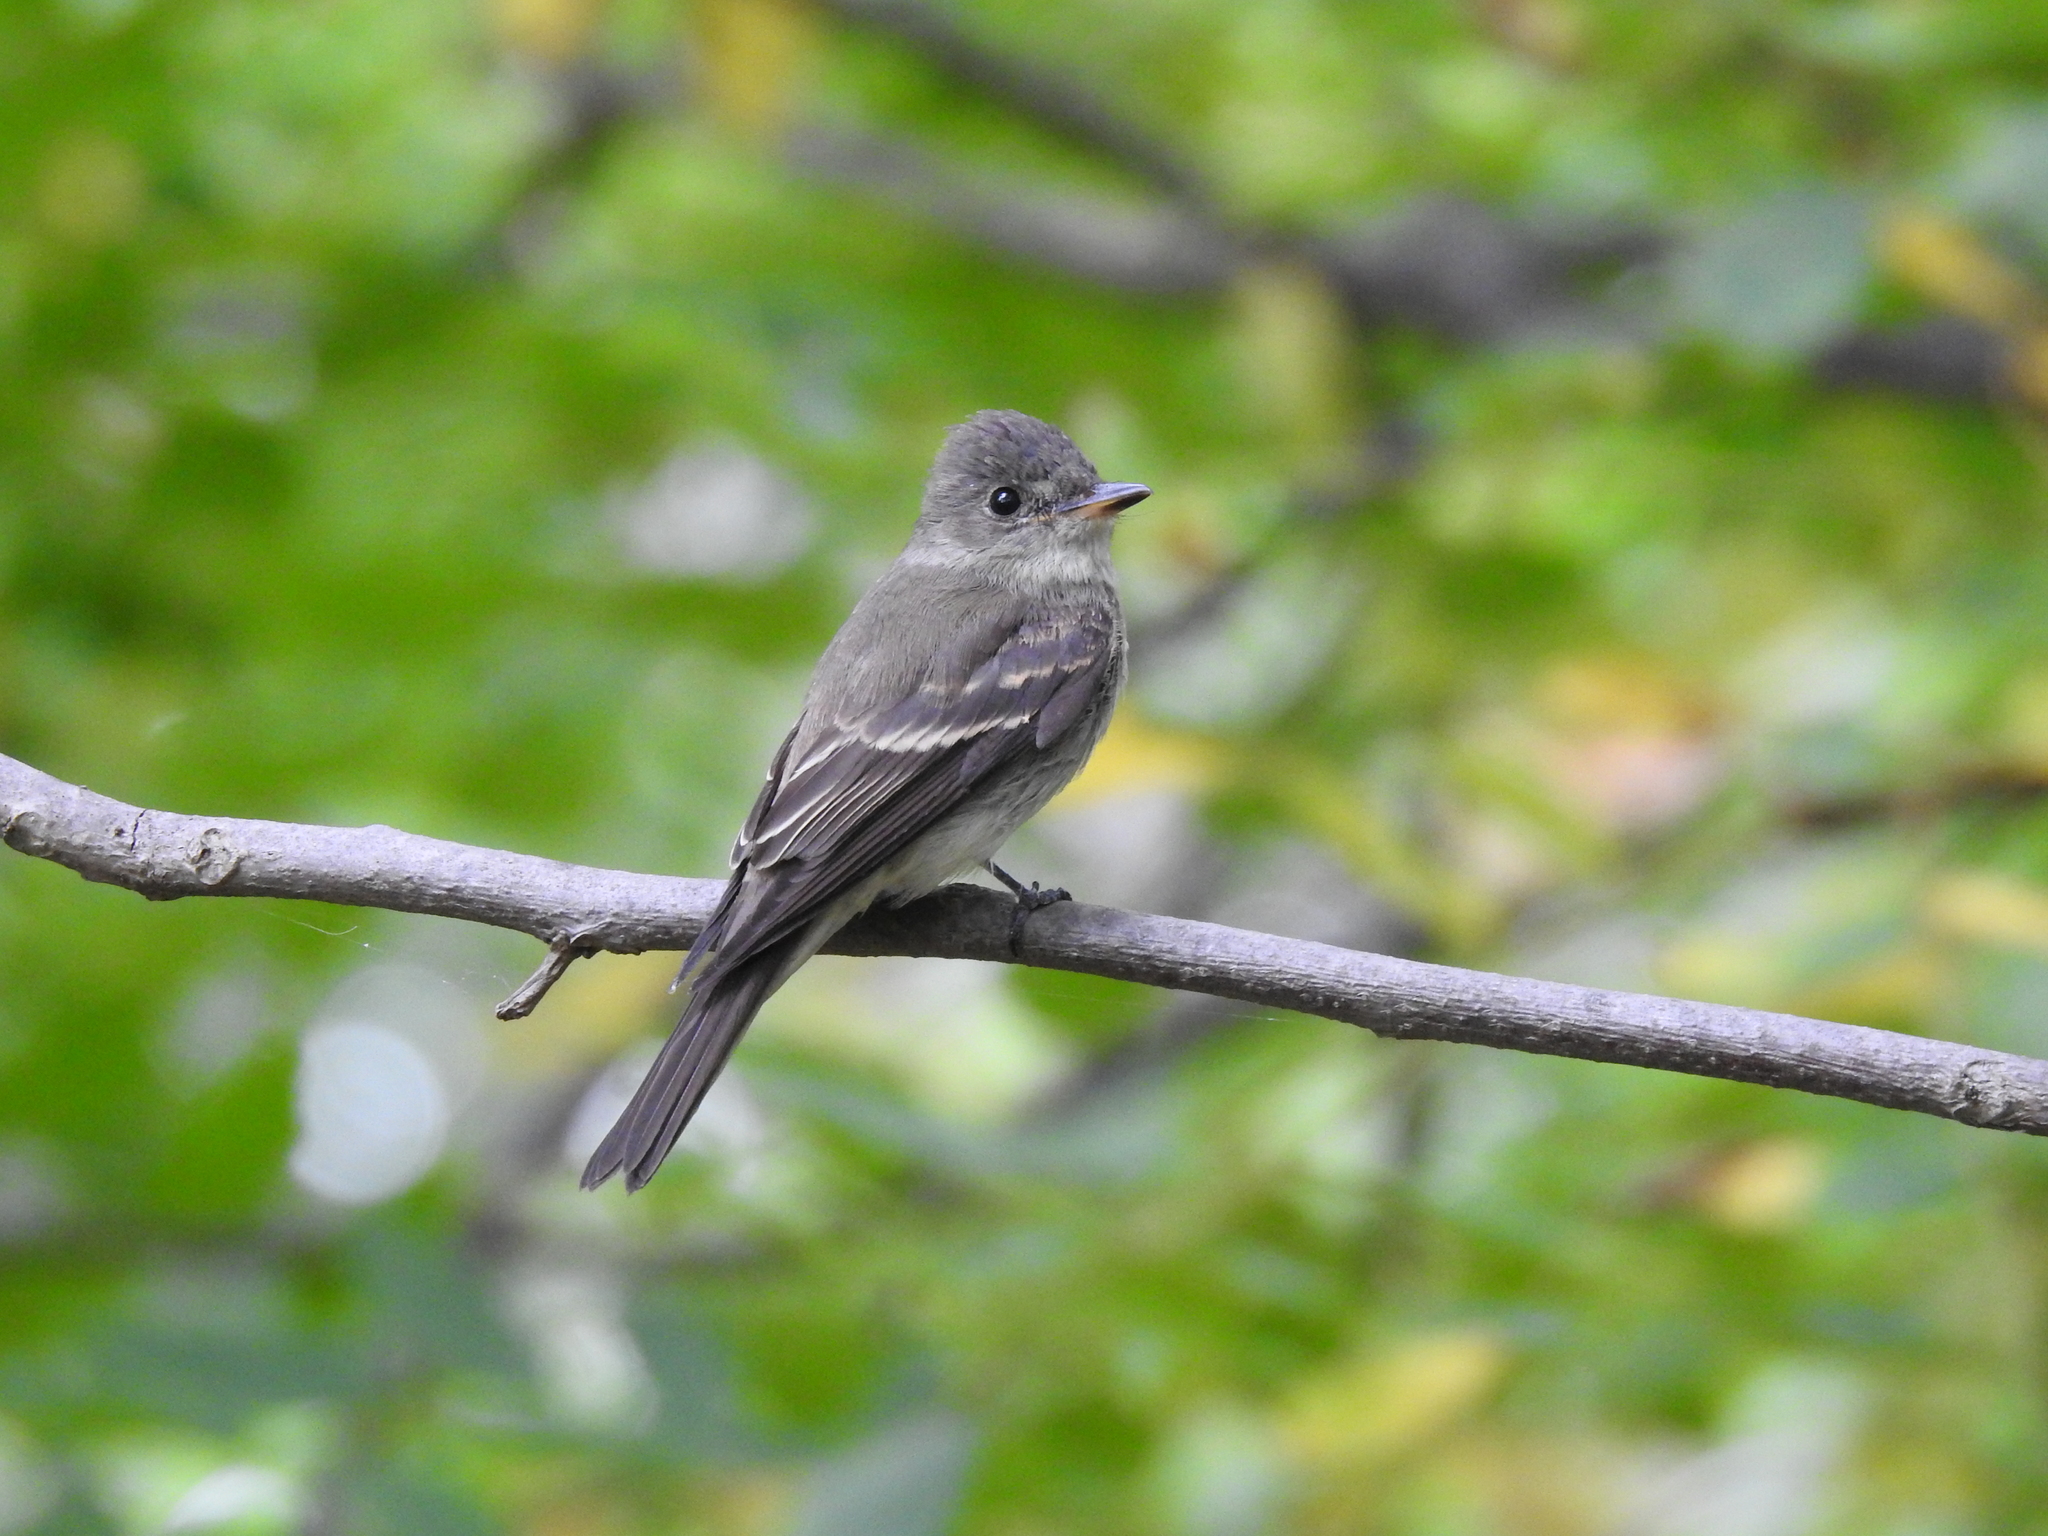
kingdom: Animalia
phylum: Chordata
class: Aves
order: Passeriformes
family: Tyrannidae
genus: Contopus
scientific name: Contopus virens
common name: Eastern wood-pewee
